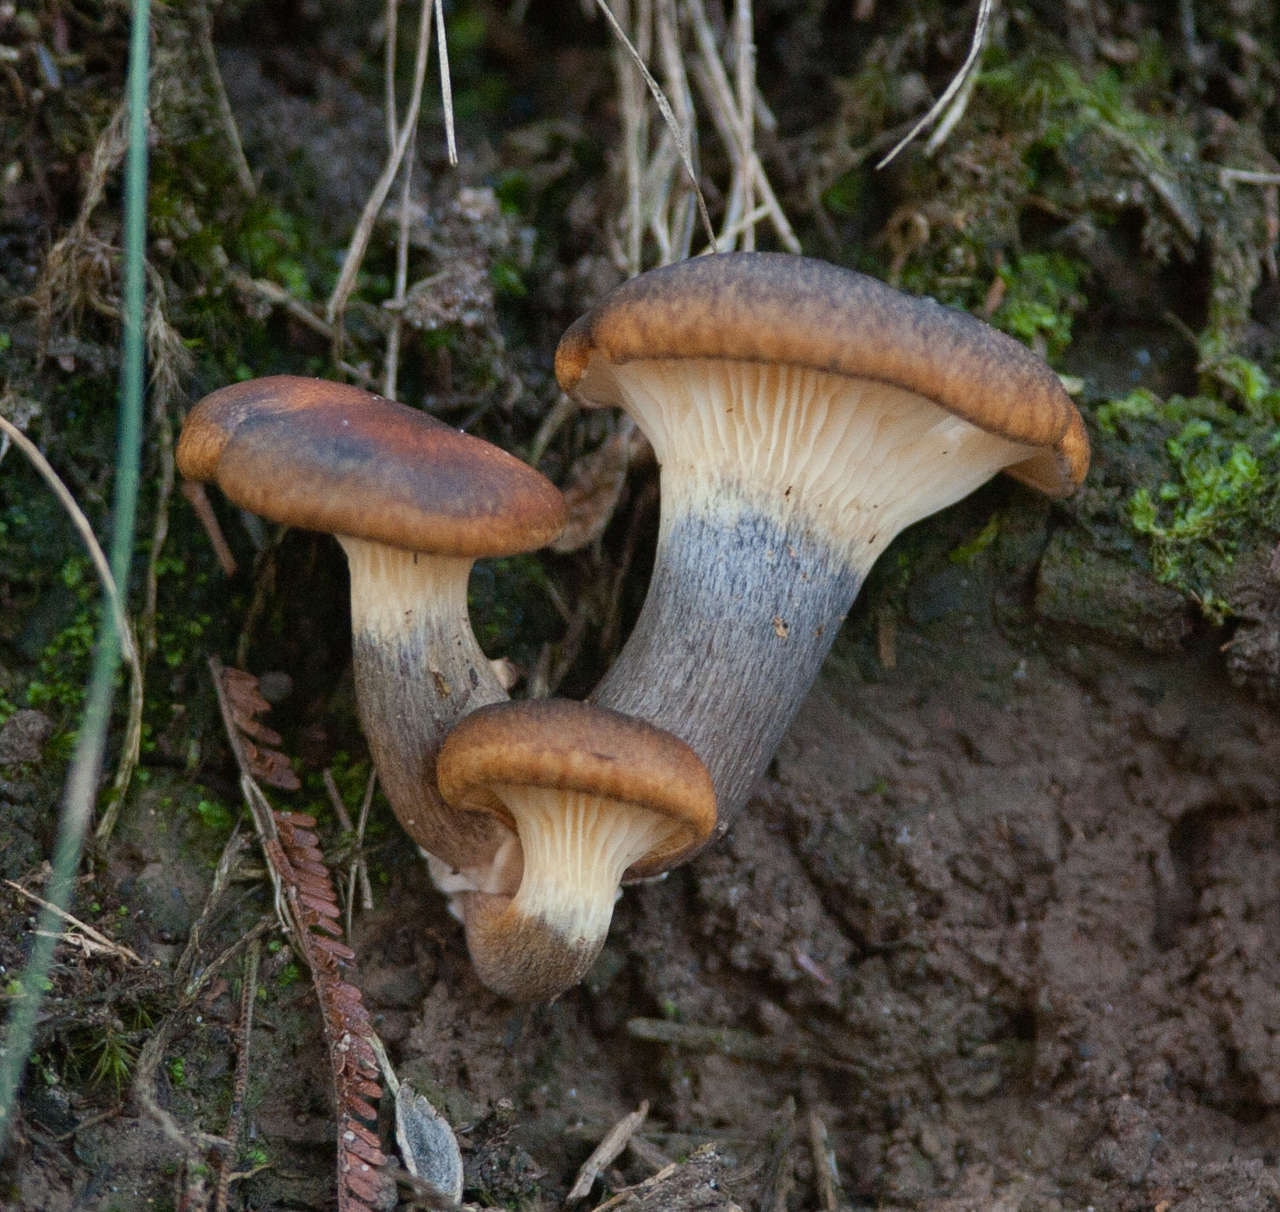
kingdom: Fungi
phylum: Basidiomycota
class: Agaricomycetes
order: Agaricales
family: Omphalotaceae
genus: Omphalotus
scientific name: Omphalotus nidiformis
